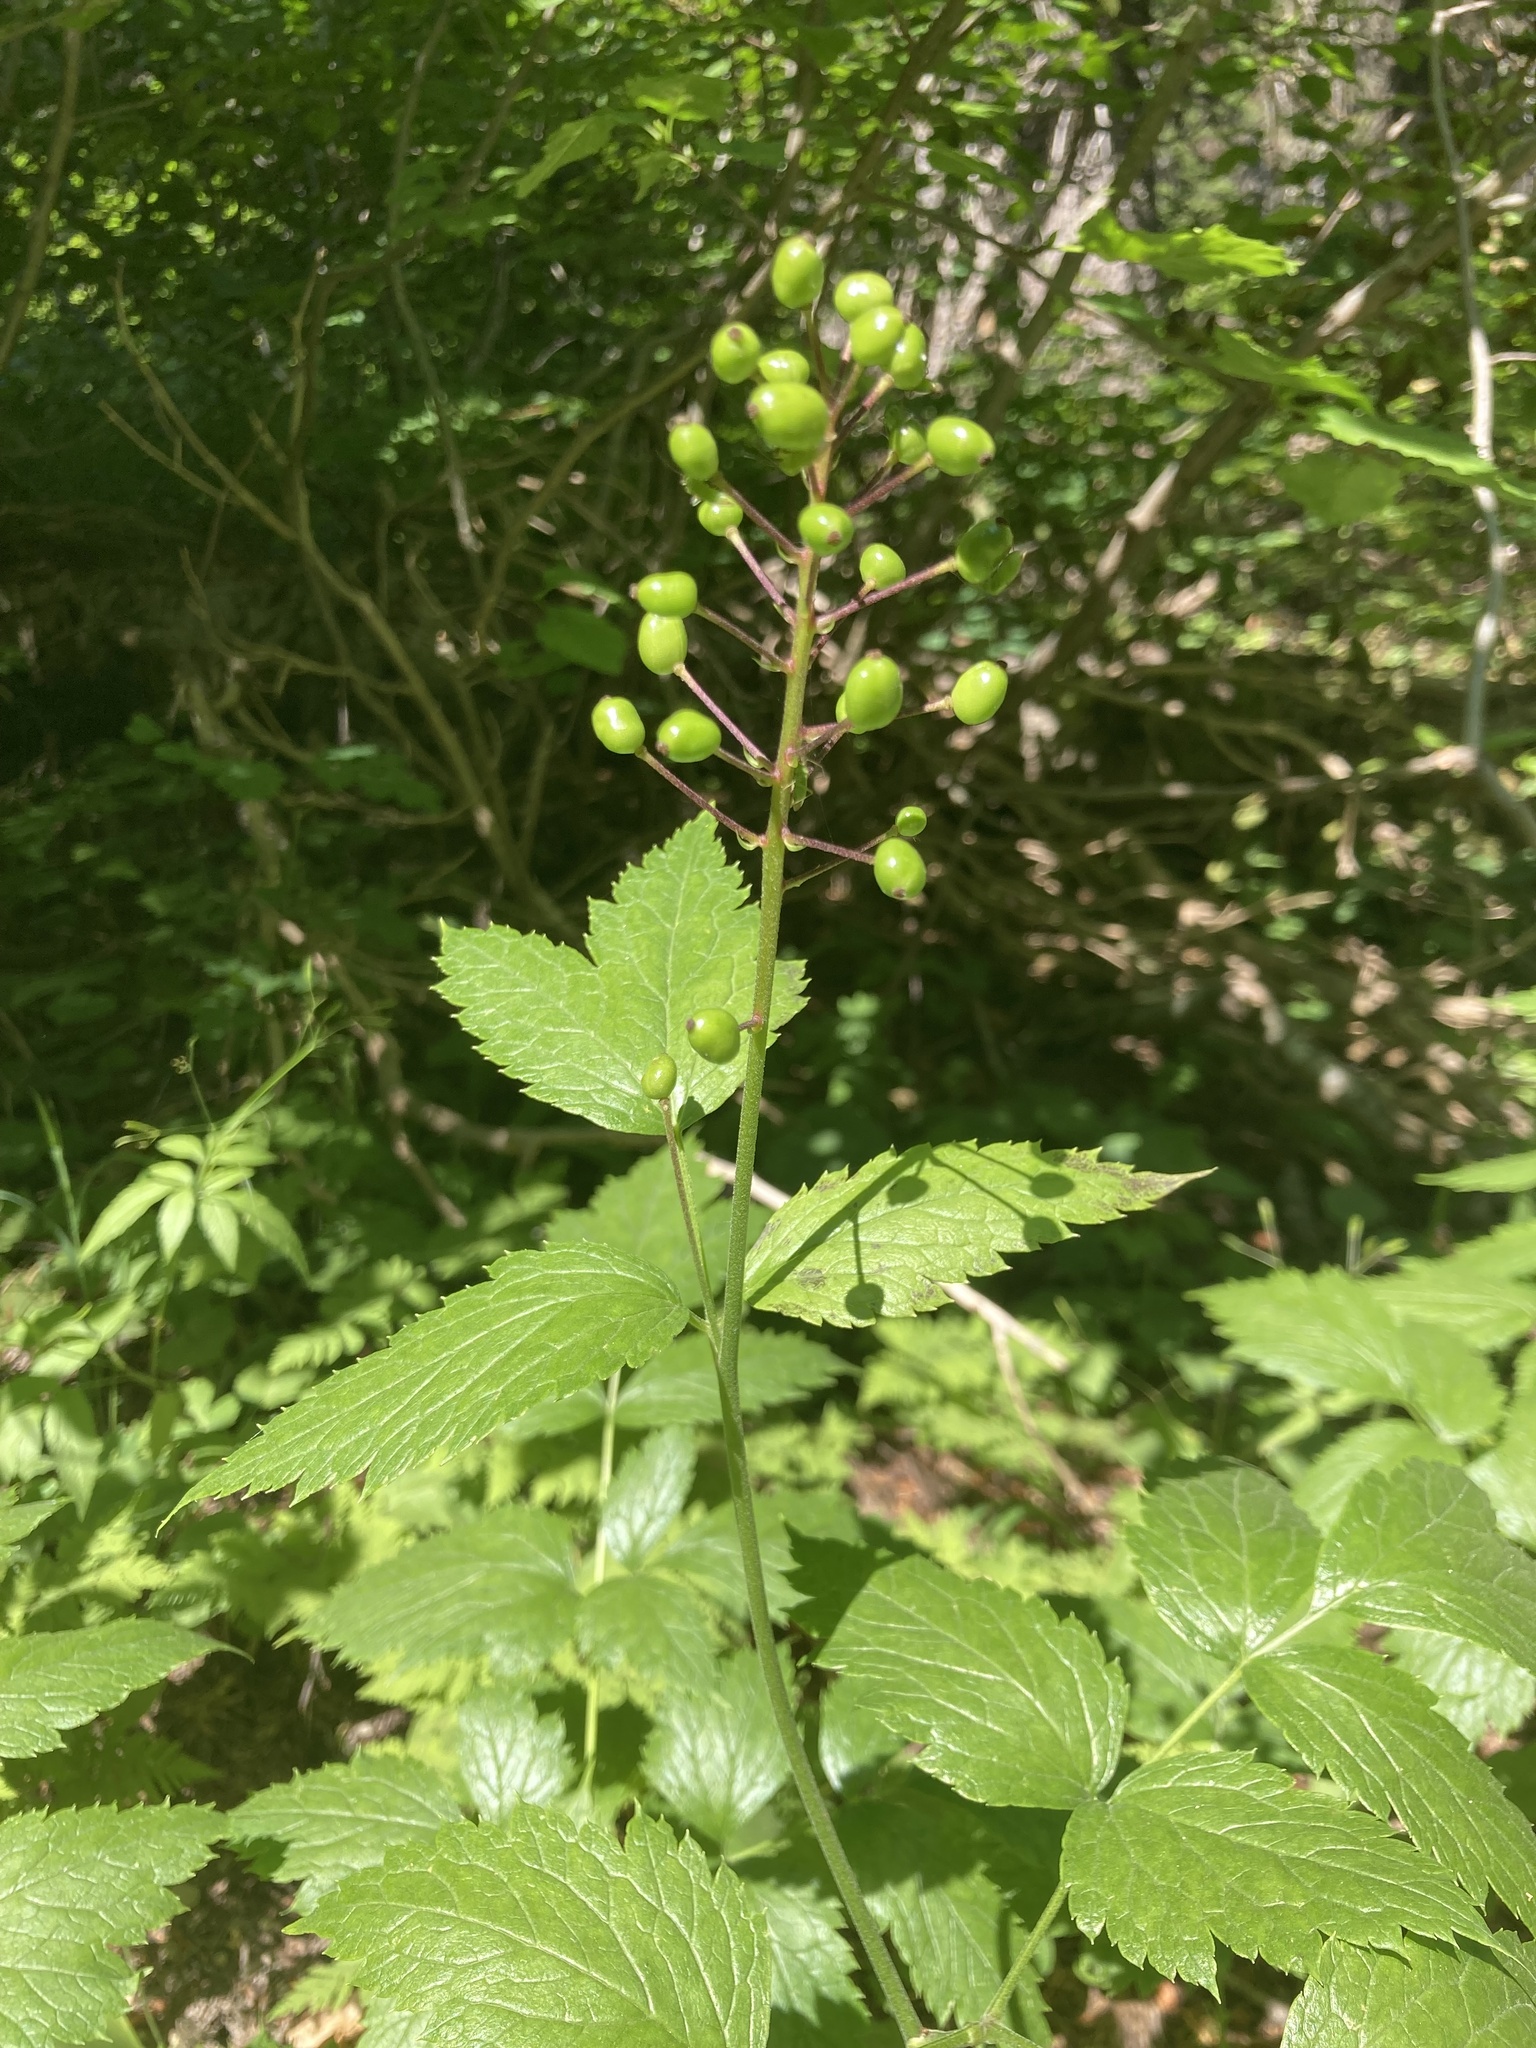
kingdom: Plantae
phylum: Tracheophyta
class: Magnoliopsida
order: Ranunculales
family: Ranunculaceae
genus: Actaea
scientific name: Actaea rubra
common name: Red baneberry
